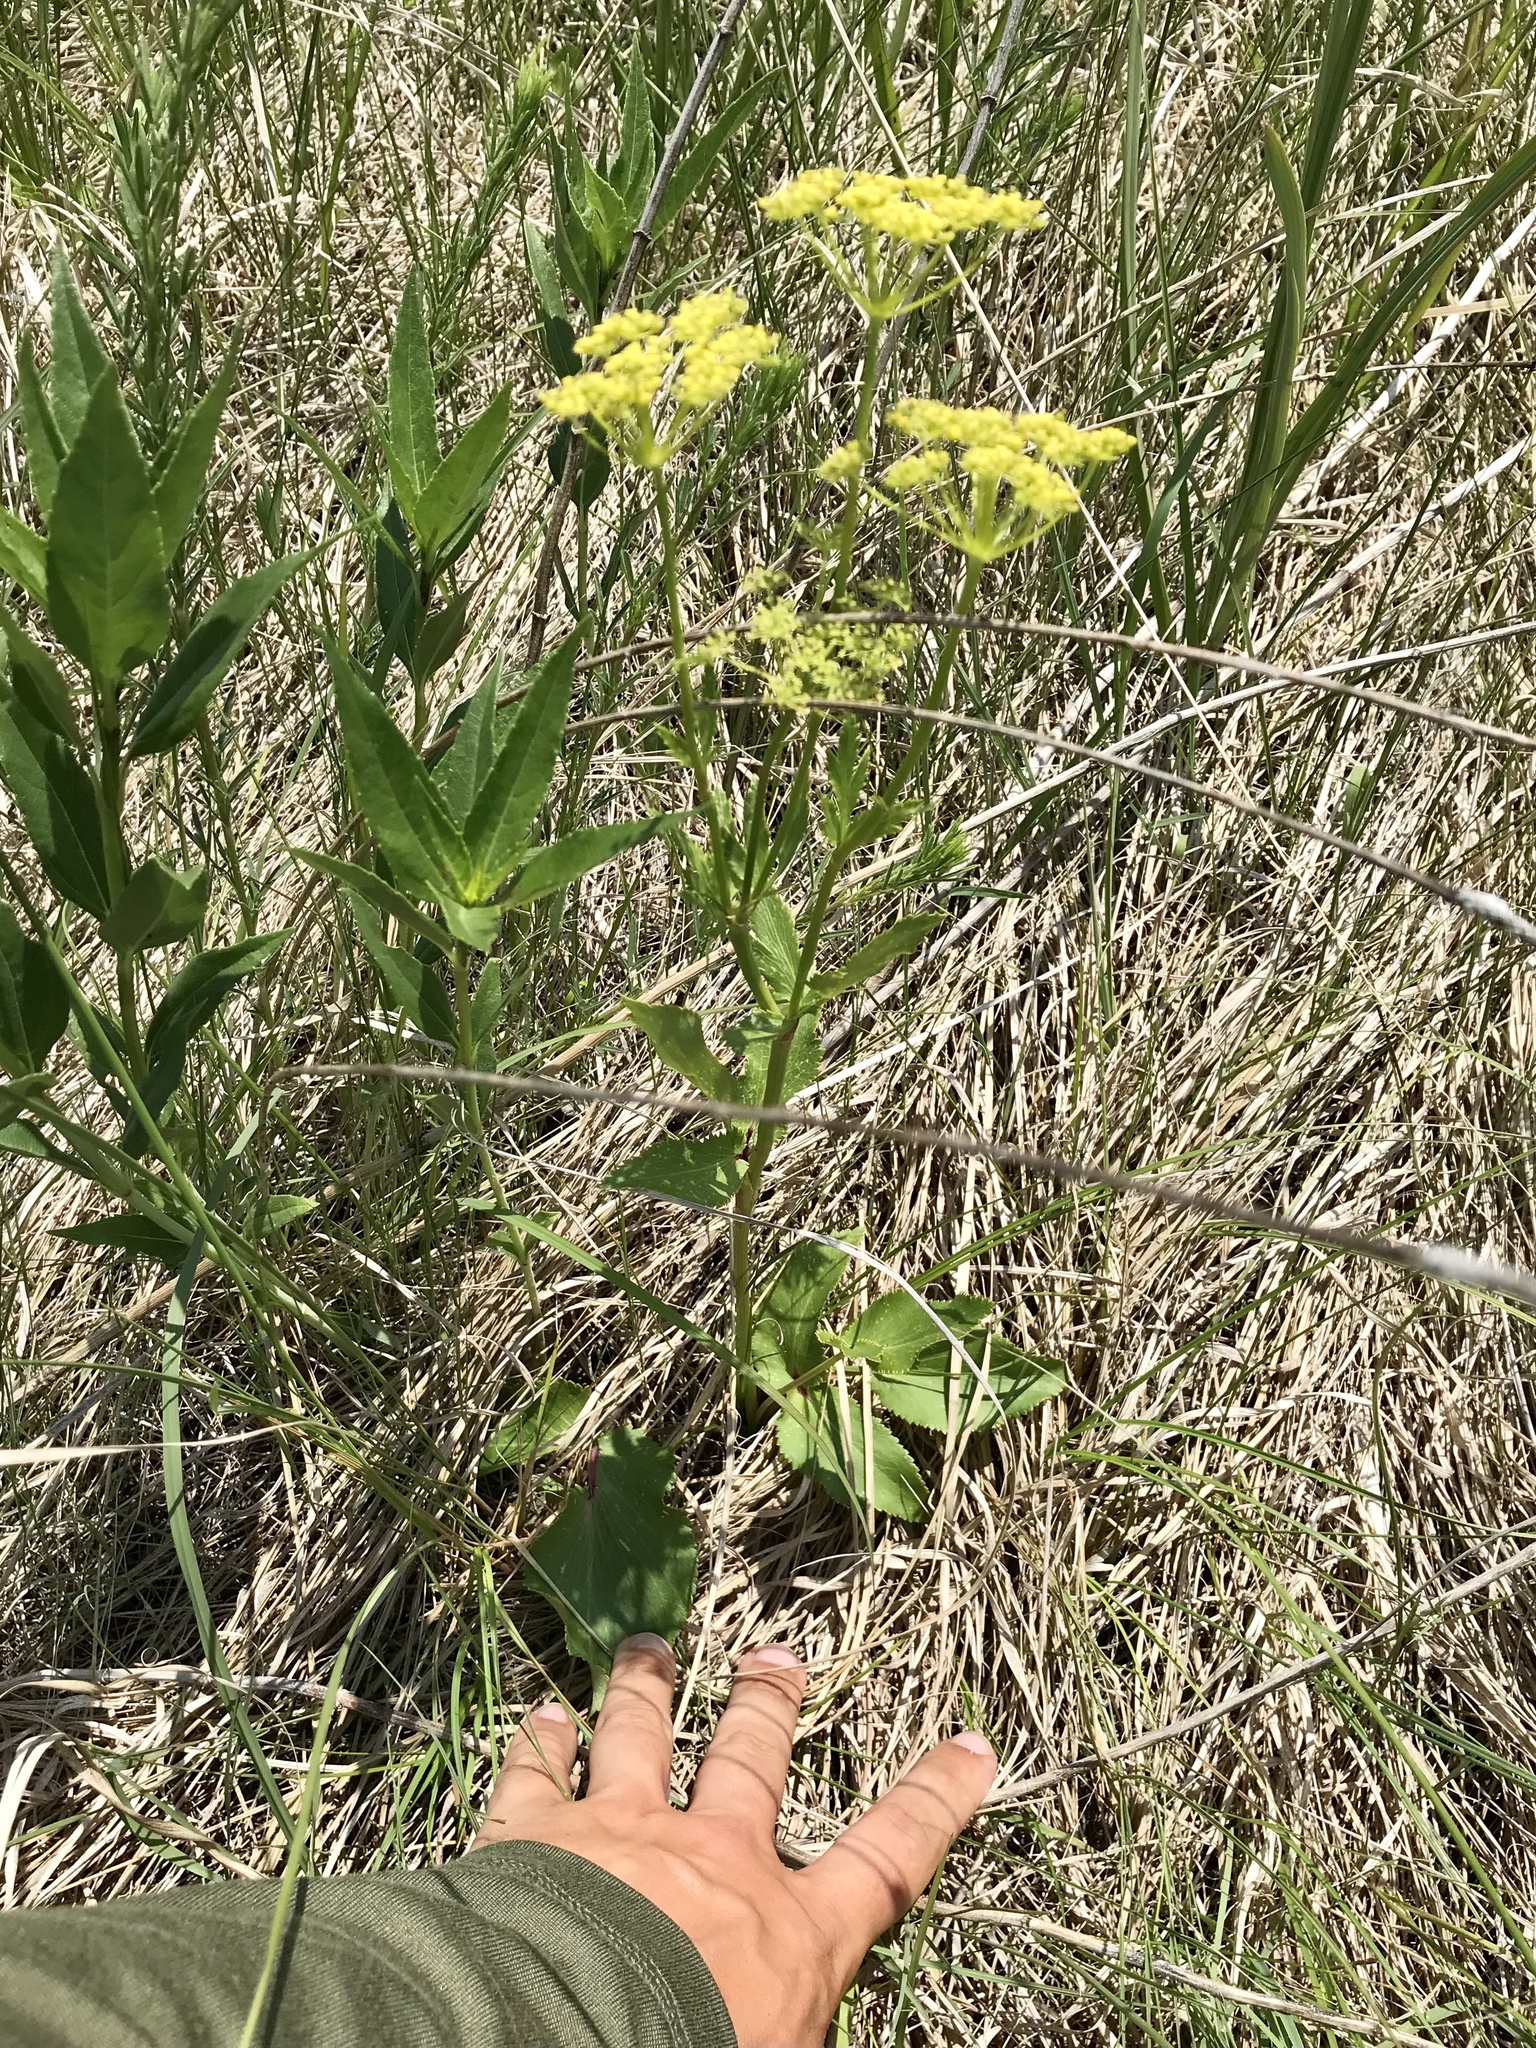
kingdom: Plantae
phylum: Tracheophyta
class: Magnoliopsida
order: Apiales
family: Apiaceae
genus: Zizia
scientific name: Zizia aptera
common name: Heart-leaved alexanders
